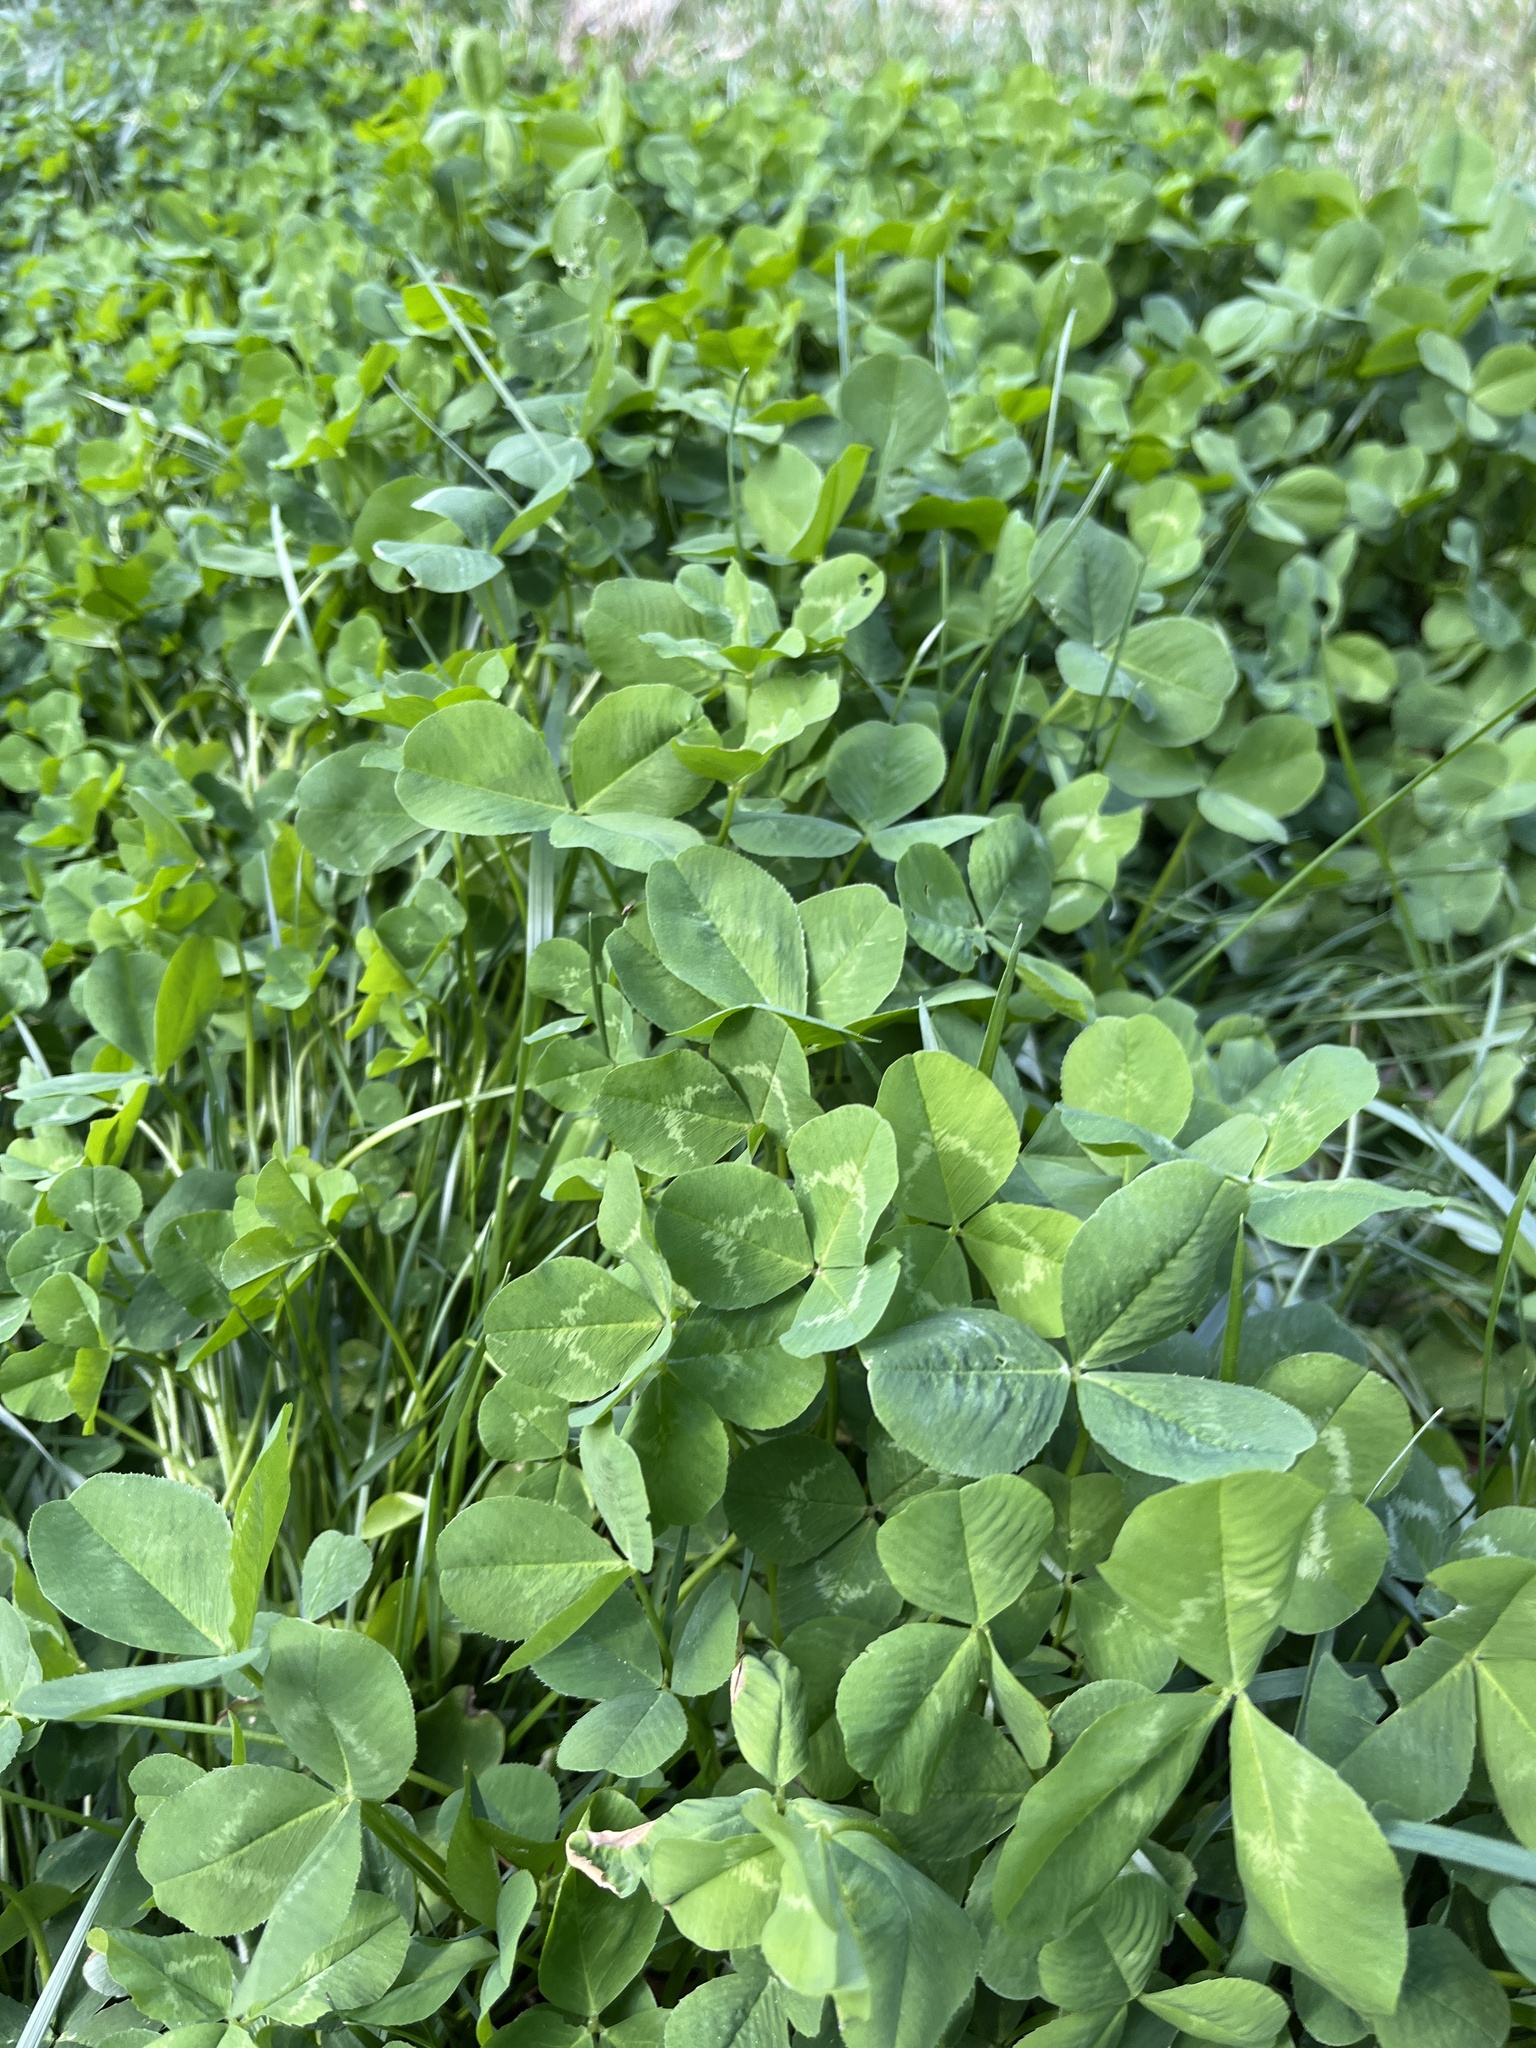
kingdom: Plantae
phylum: Tracheophyta
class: Magnoliopsida
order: Fabales
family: Fabaceae
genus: Trifolium
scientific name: Trifolium repens
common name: White clover
